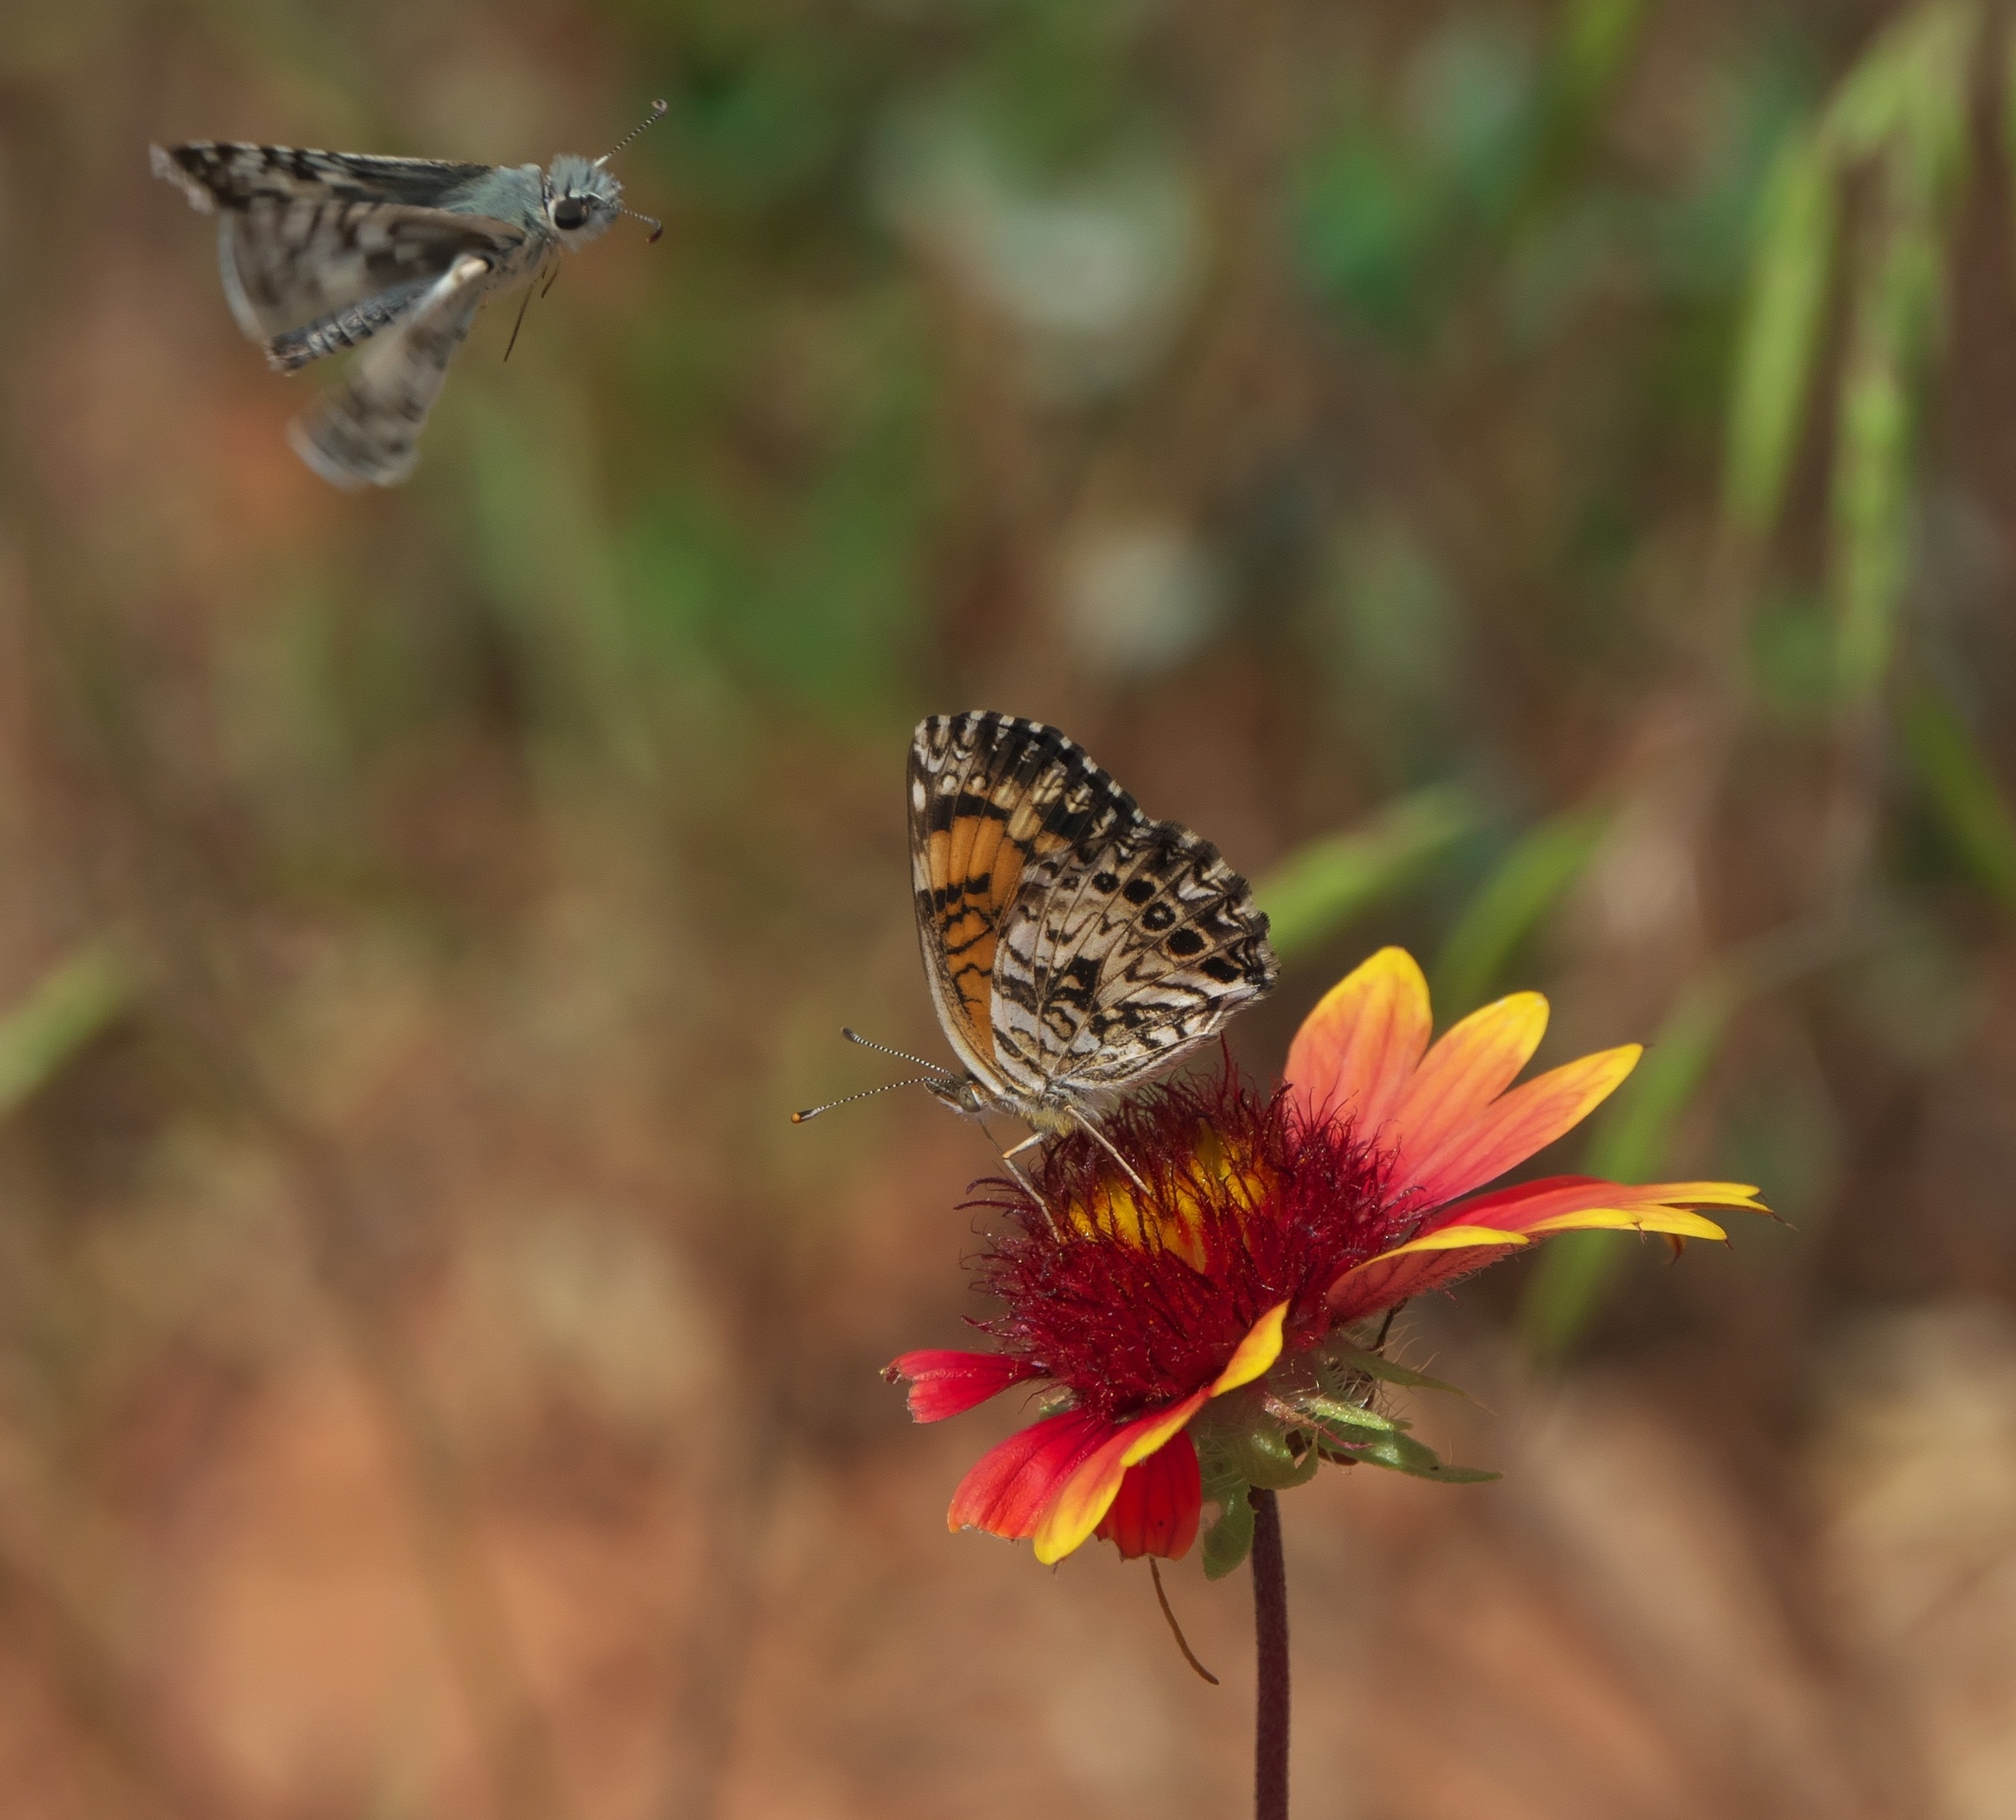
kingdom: Animalia
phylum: Arthropoda
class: Insecta
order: Lepidoptera
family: Nymphalidae
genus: Chlosyne
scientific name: Chlosyne gorgone
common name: Gorgone checkerspot
